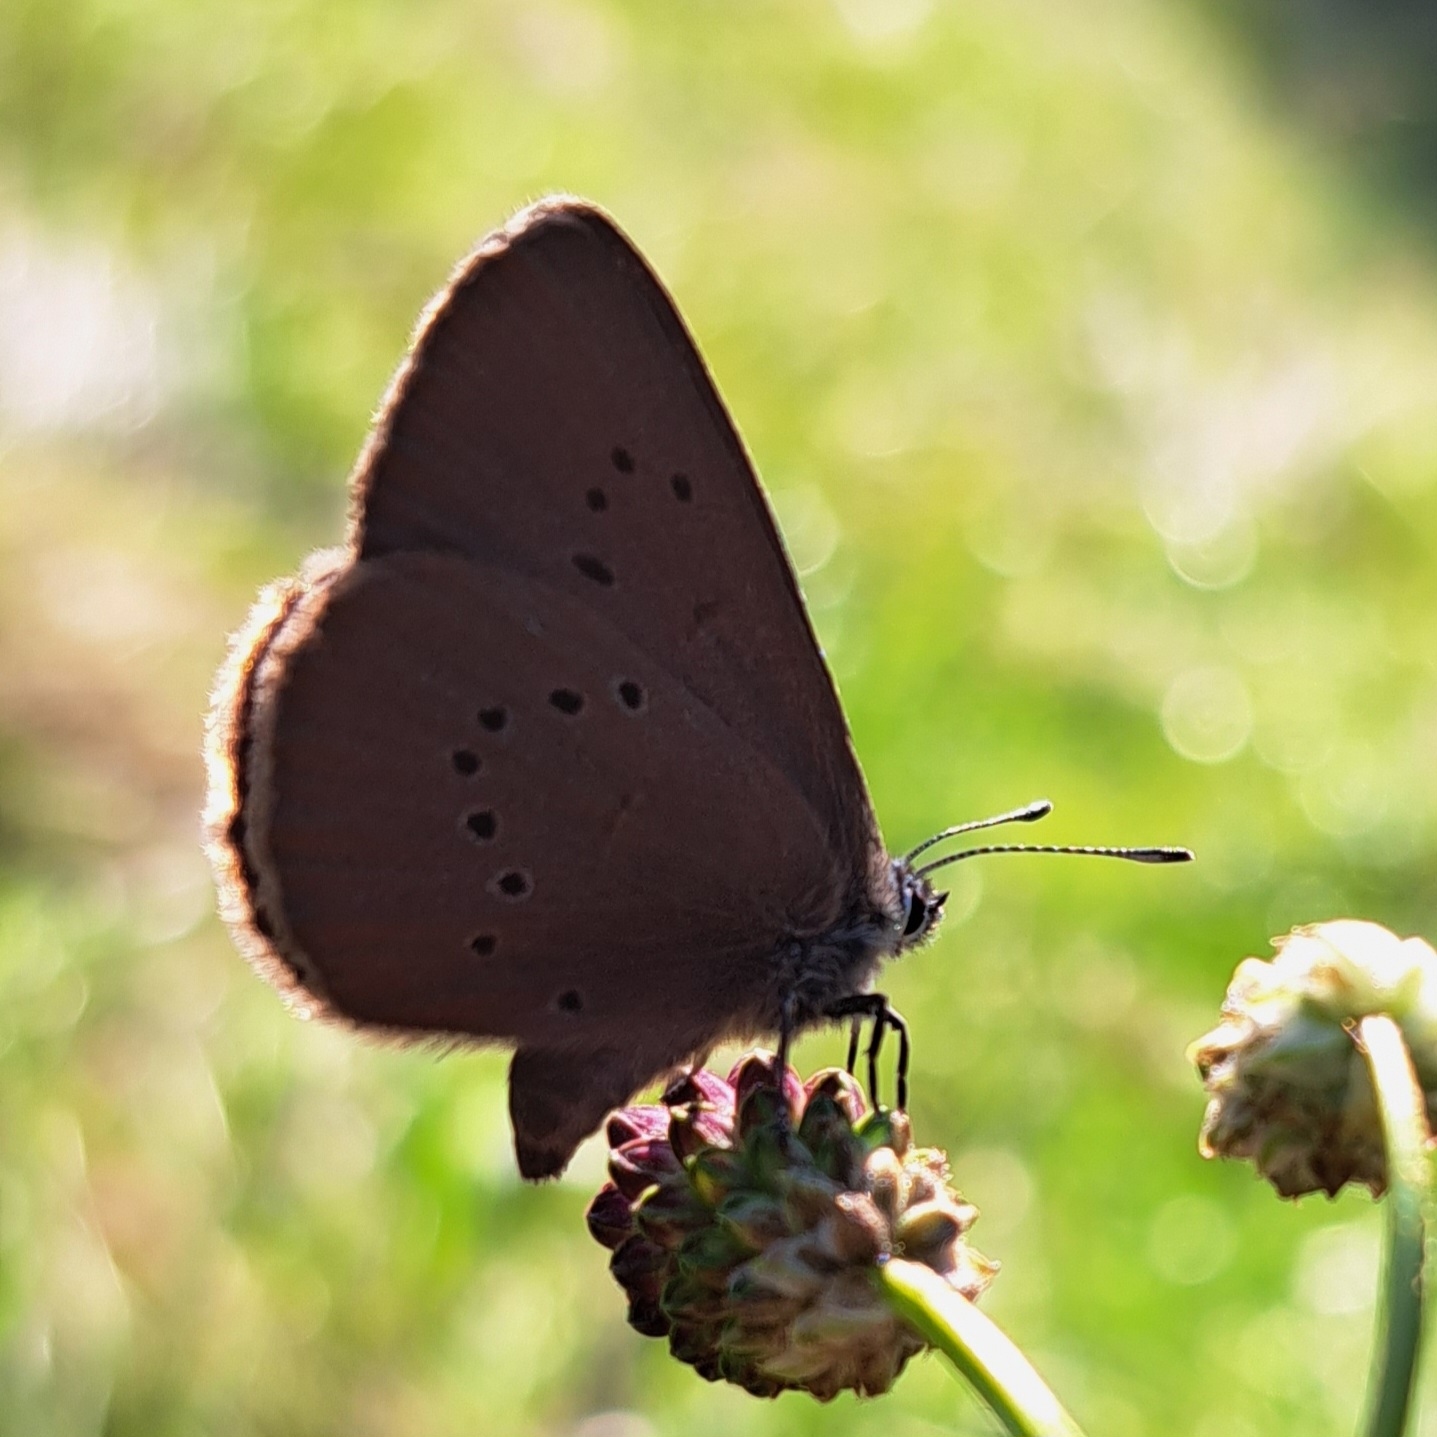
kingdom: Animalia
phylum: Arthropoda
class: Insecta
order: Lepidoptera
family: Lycaenidae
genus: Maculinea
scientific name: Maculinea nausithous
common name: Dusky large blue
